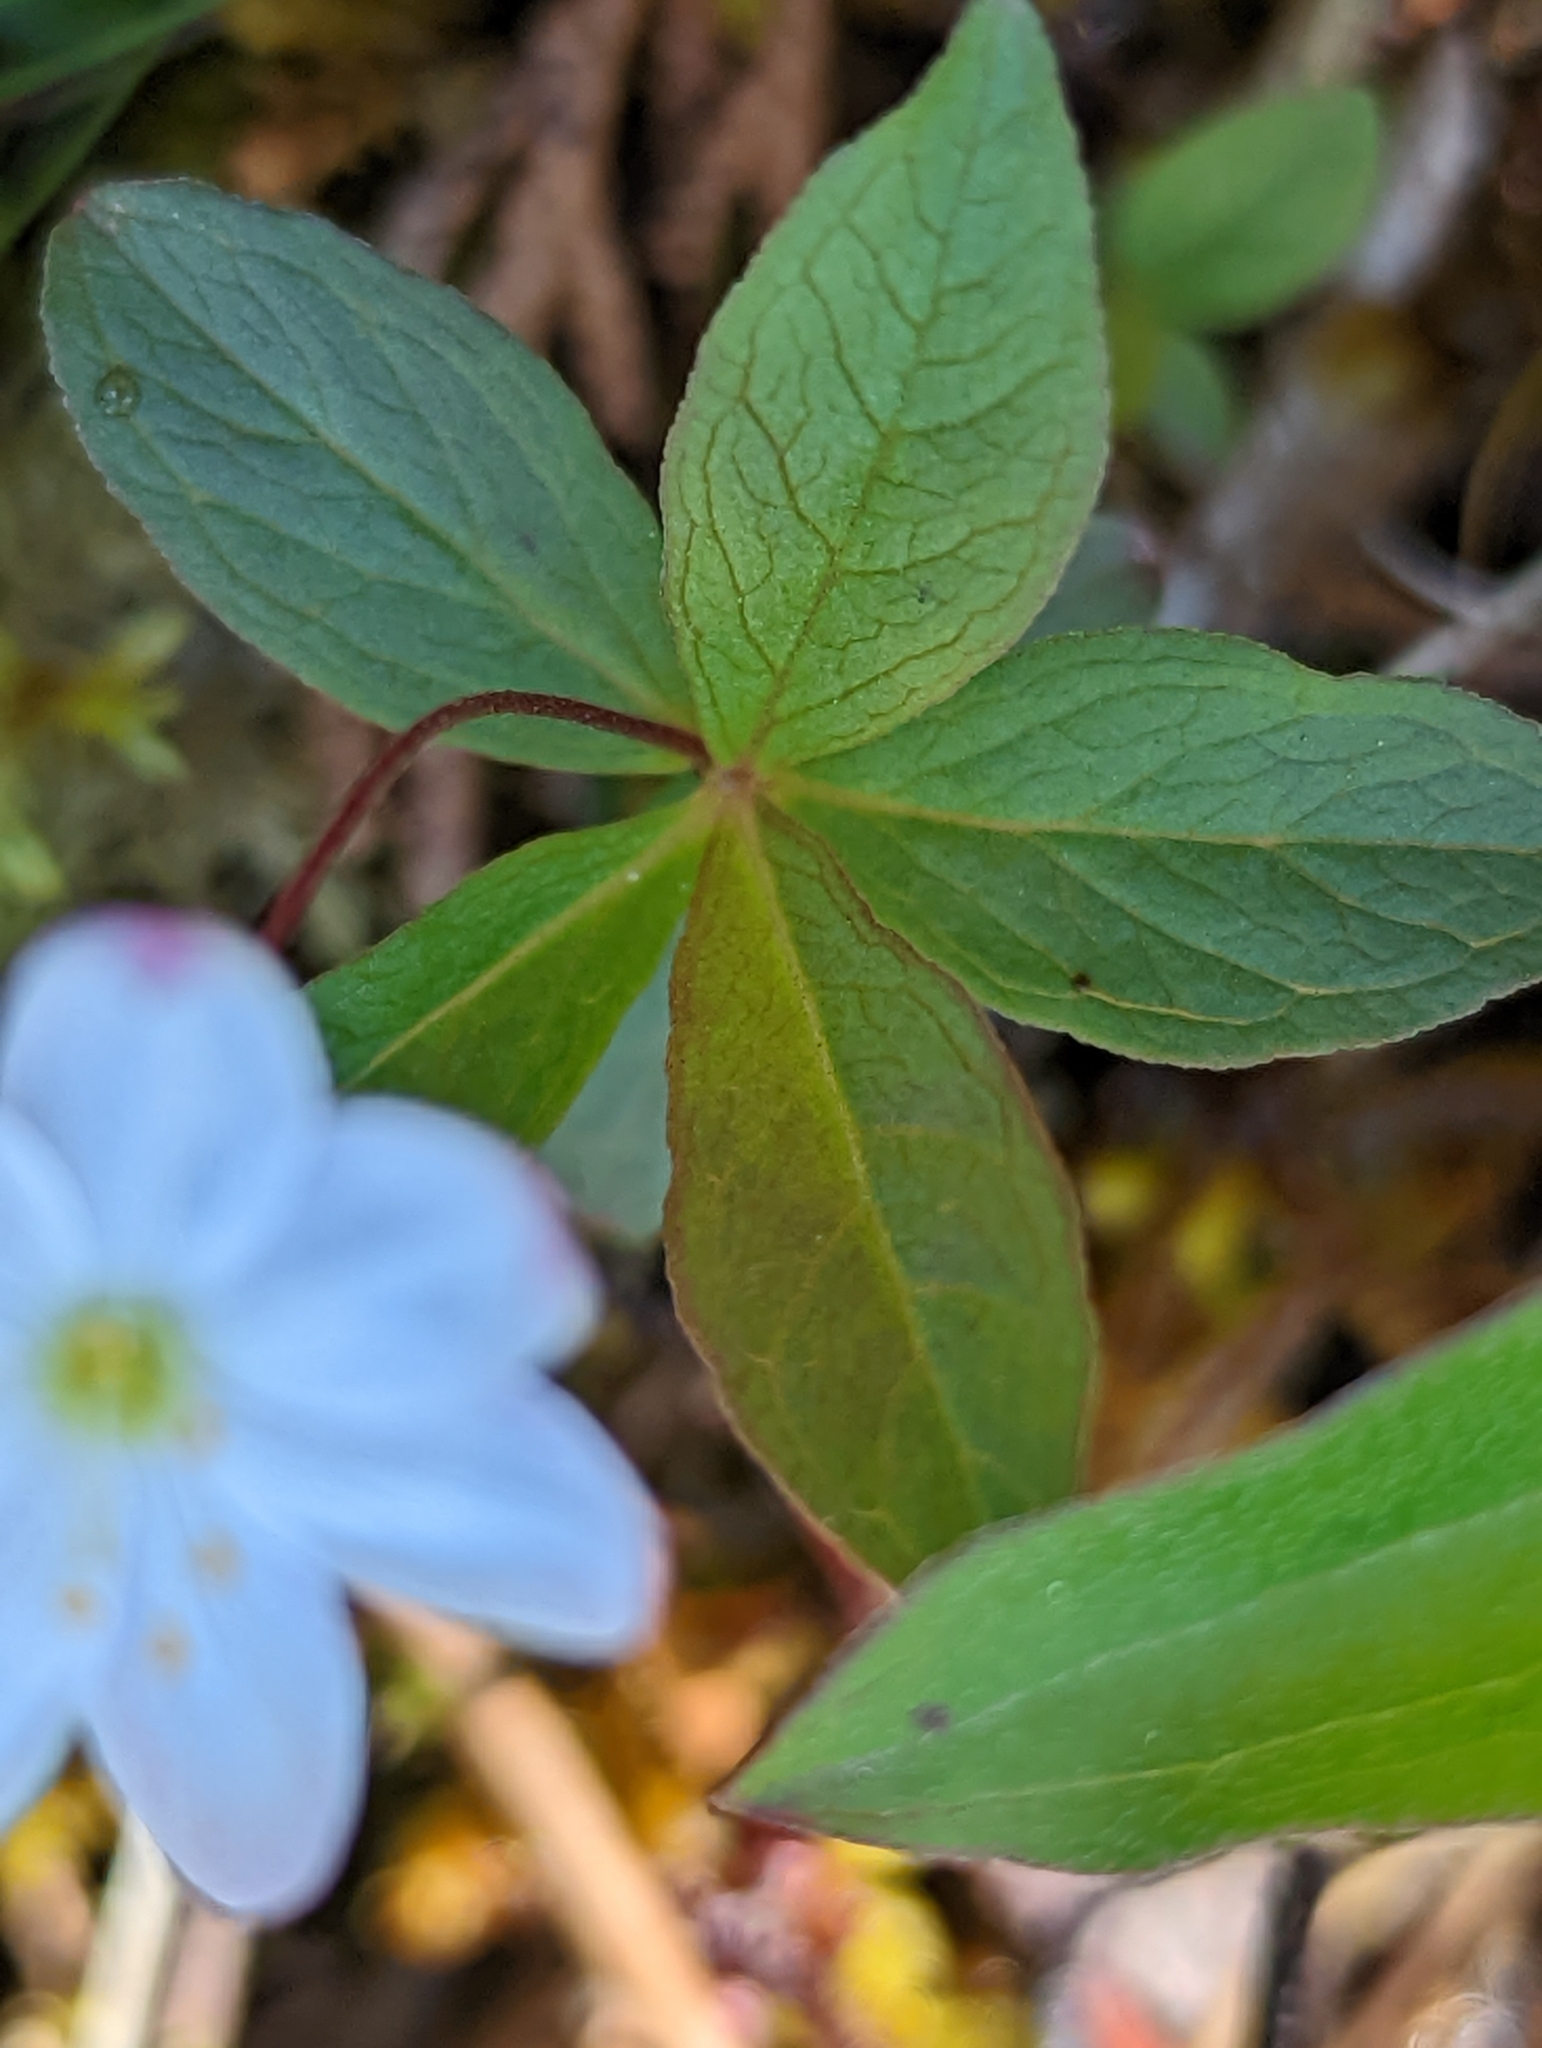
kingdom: Plantae
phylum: Tracheophyta
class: Magnoliopsida
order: Ericales
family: Primulaceae
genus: Lysimachia
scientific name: Lysimachia europaea
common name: Arctic starflower
